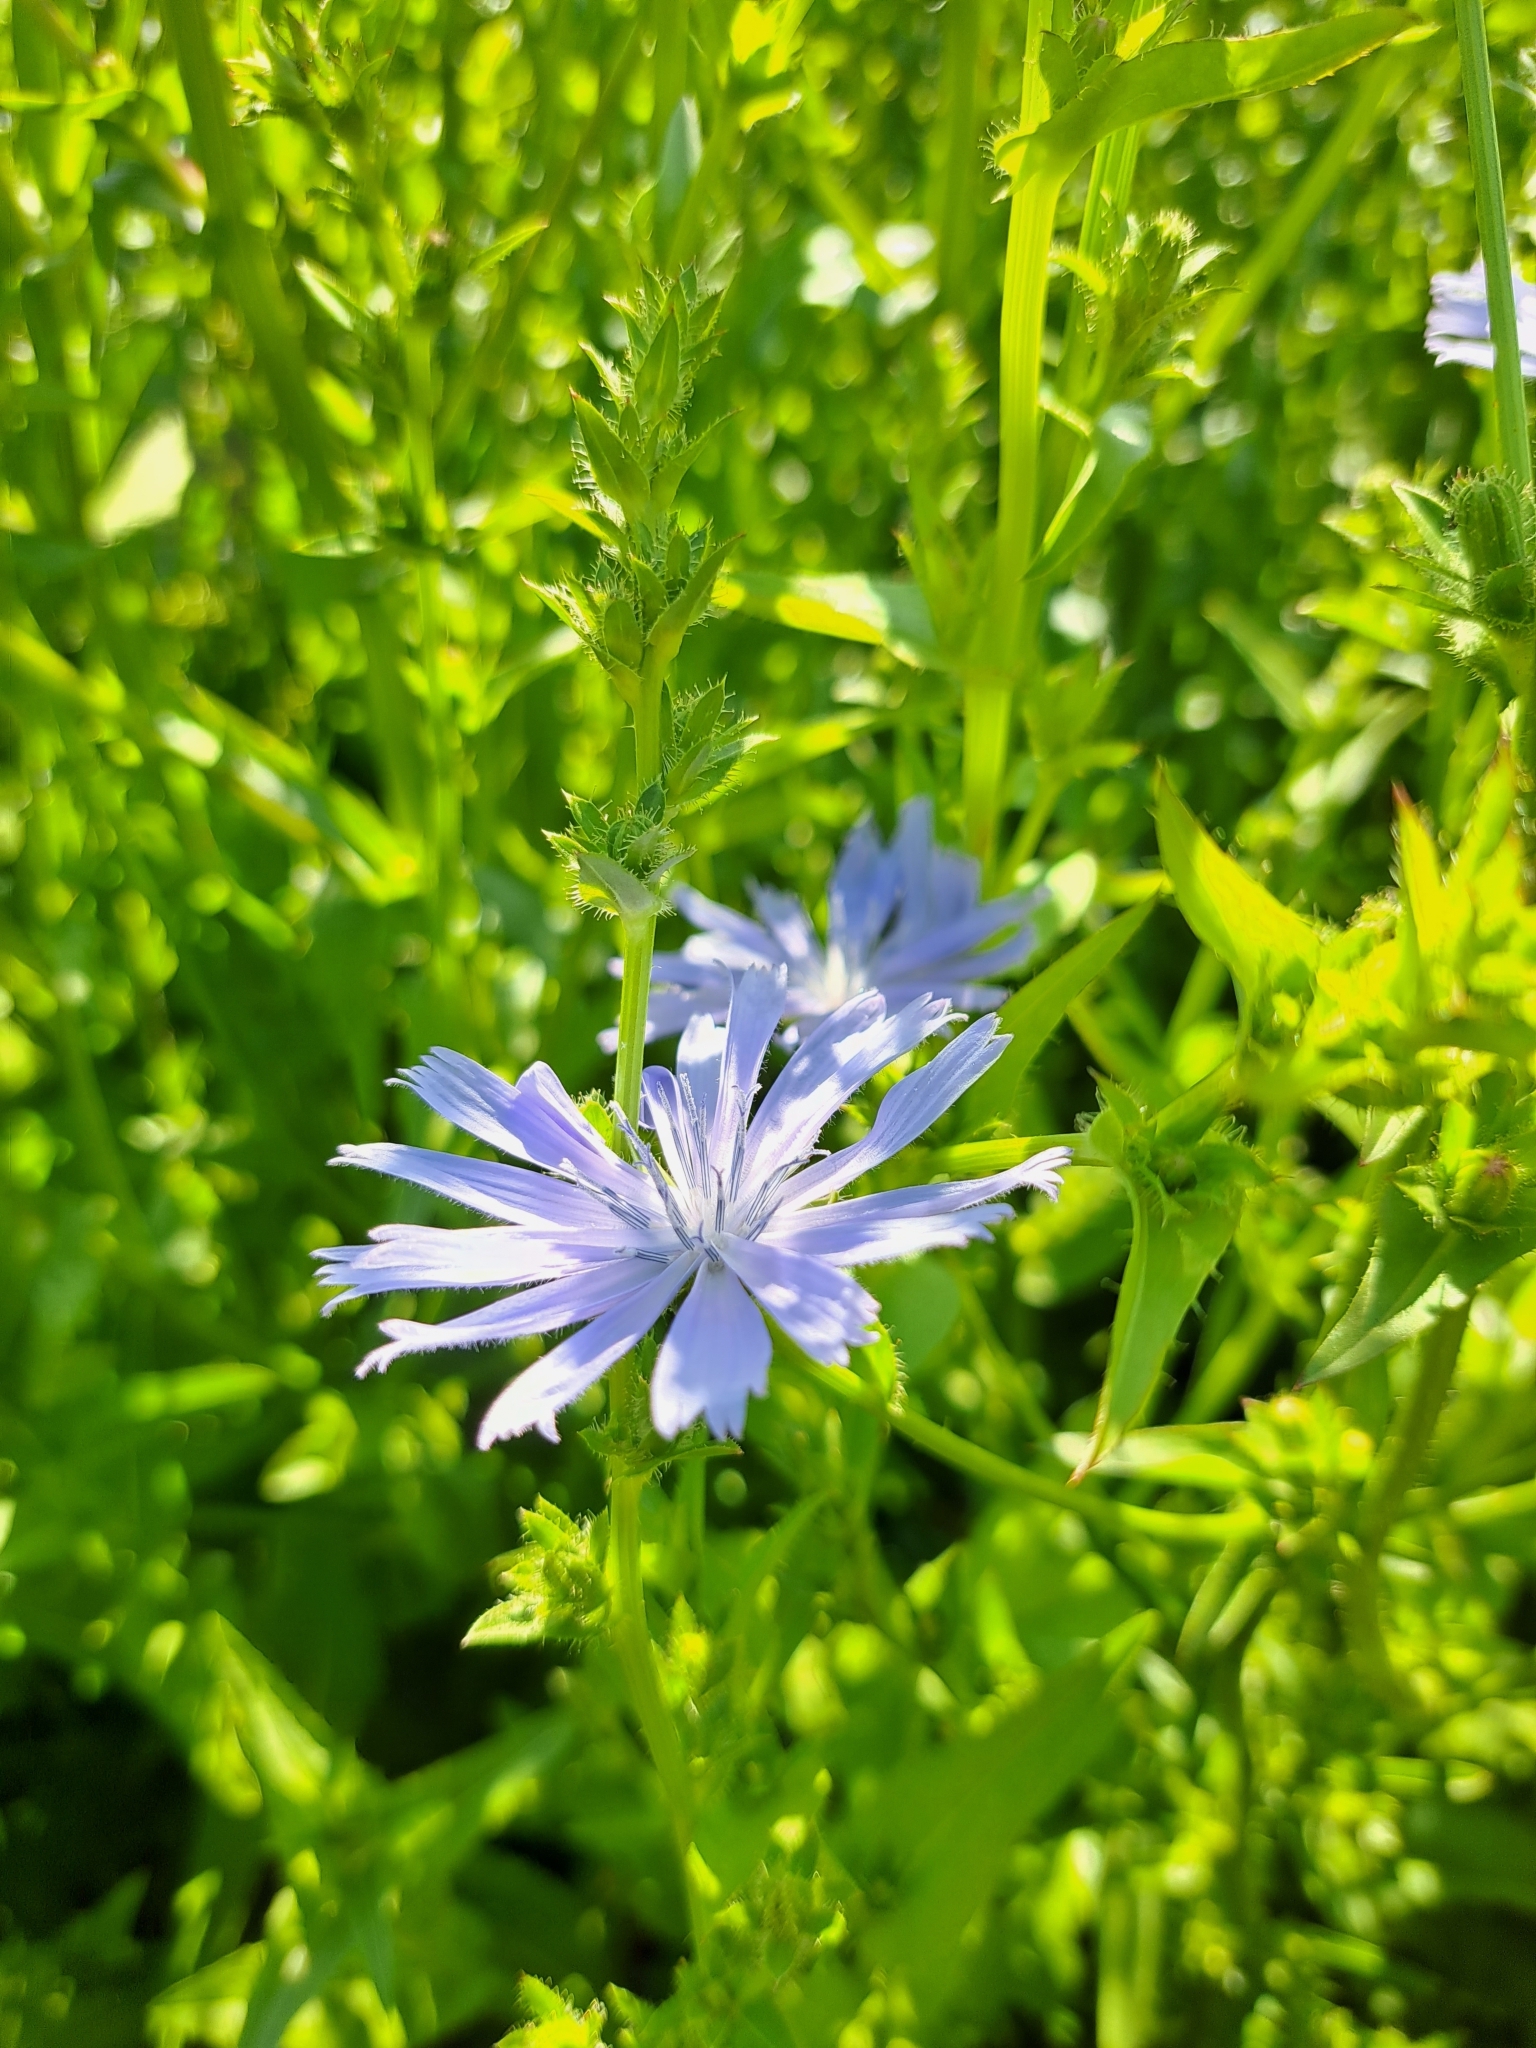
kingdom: Plantae
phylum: Tracheophyta
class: Magnoliopsida
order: Asterales
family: Asteraceae
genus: Cichorium
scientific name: Cichorium intybus
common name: Chicory
